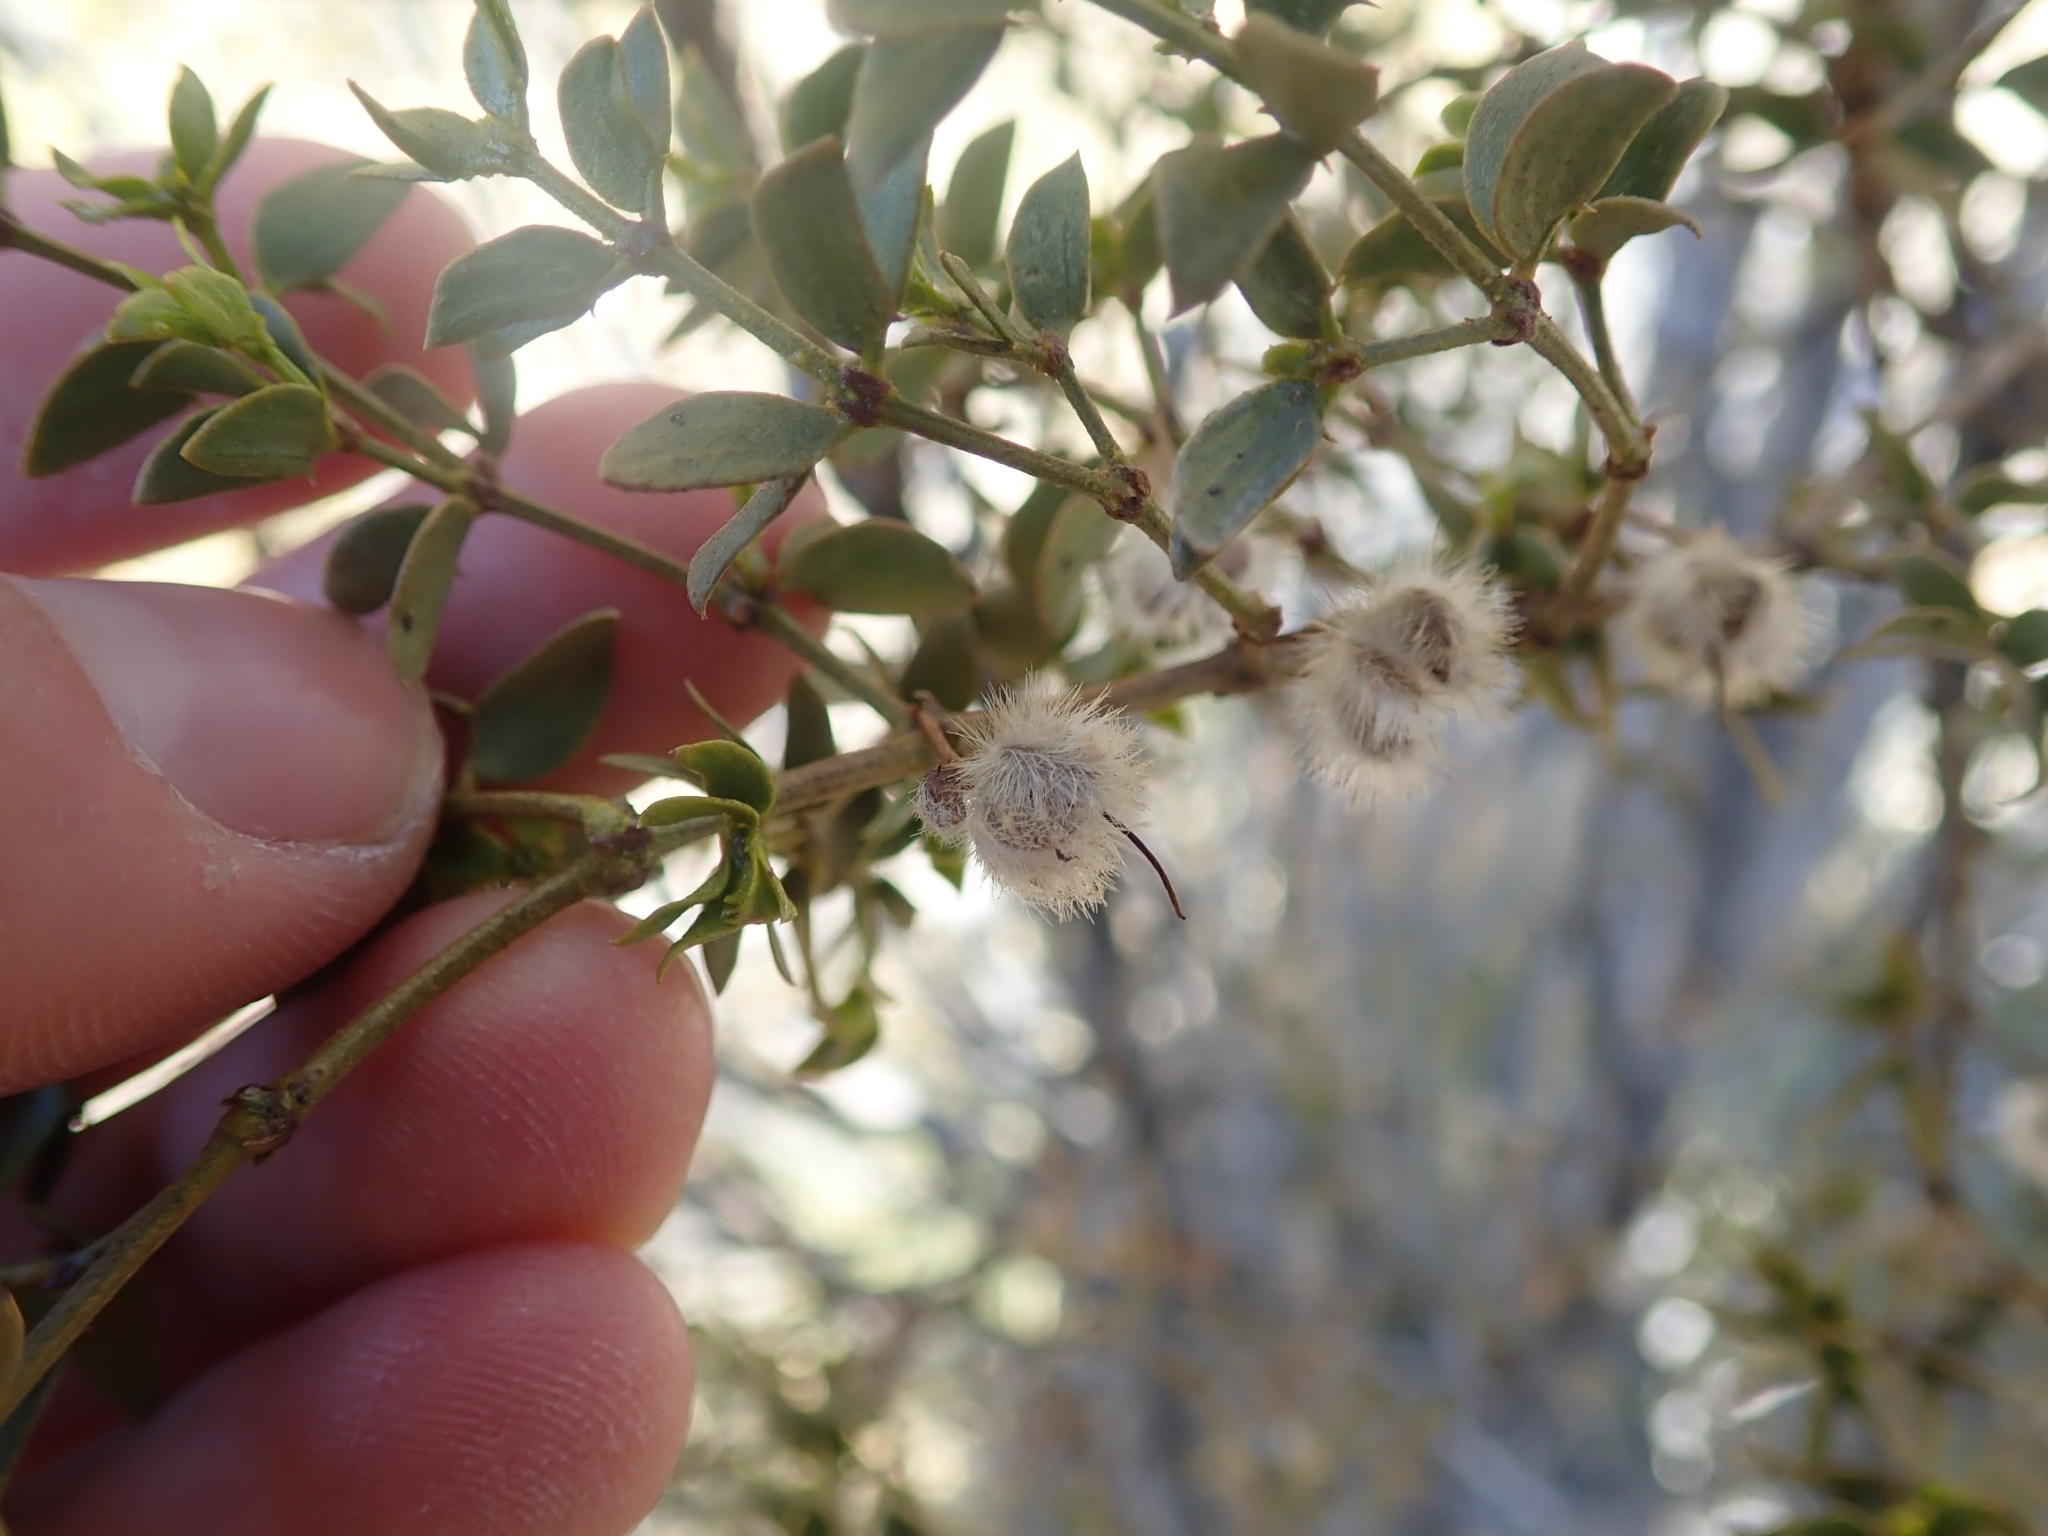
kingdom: Plantae
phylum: Tracheophyta
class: Magnoliopsida
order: Zygophyllales
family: Zygophyllaceae
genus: Larrea
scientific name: Larrea tridentata
